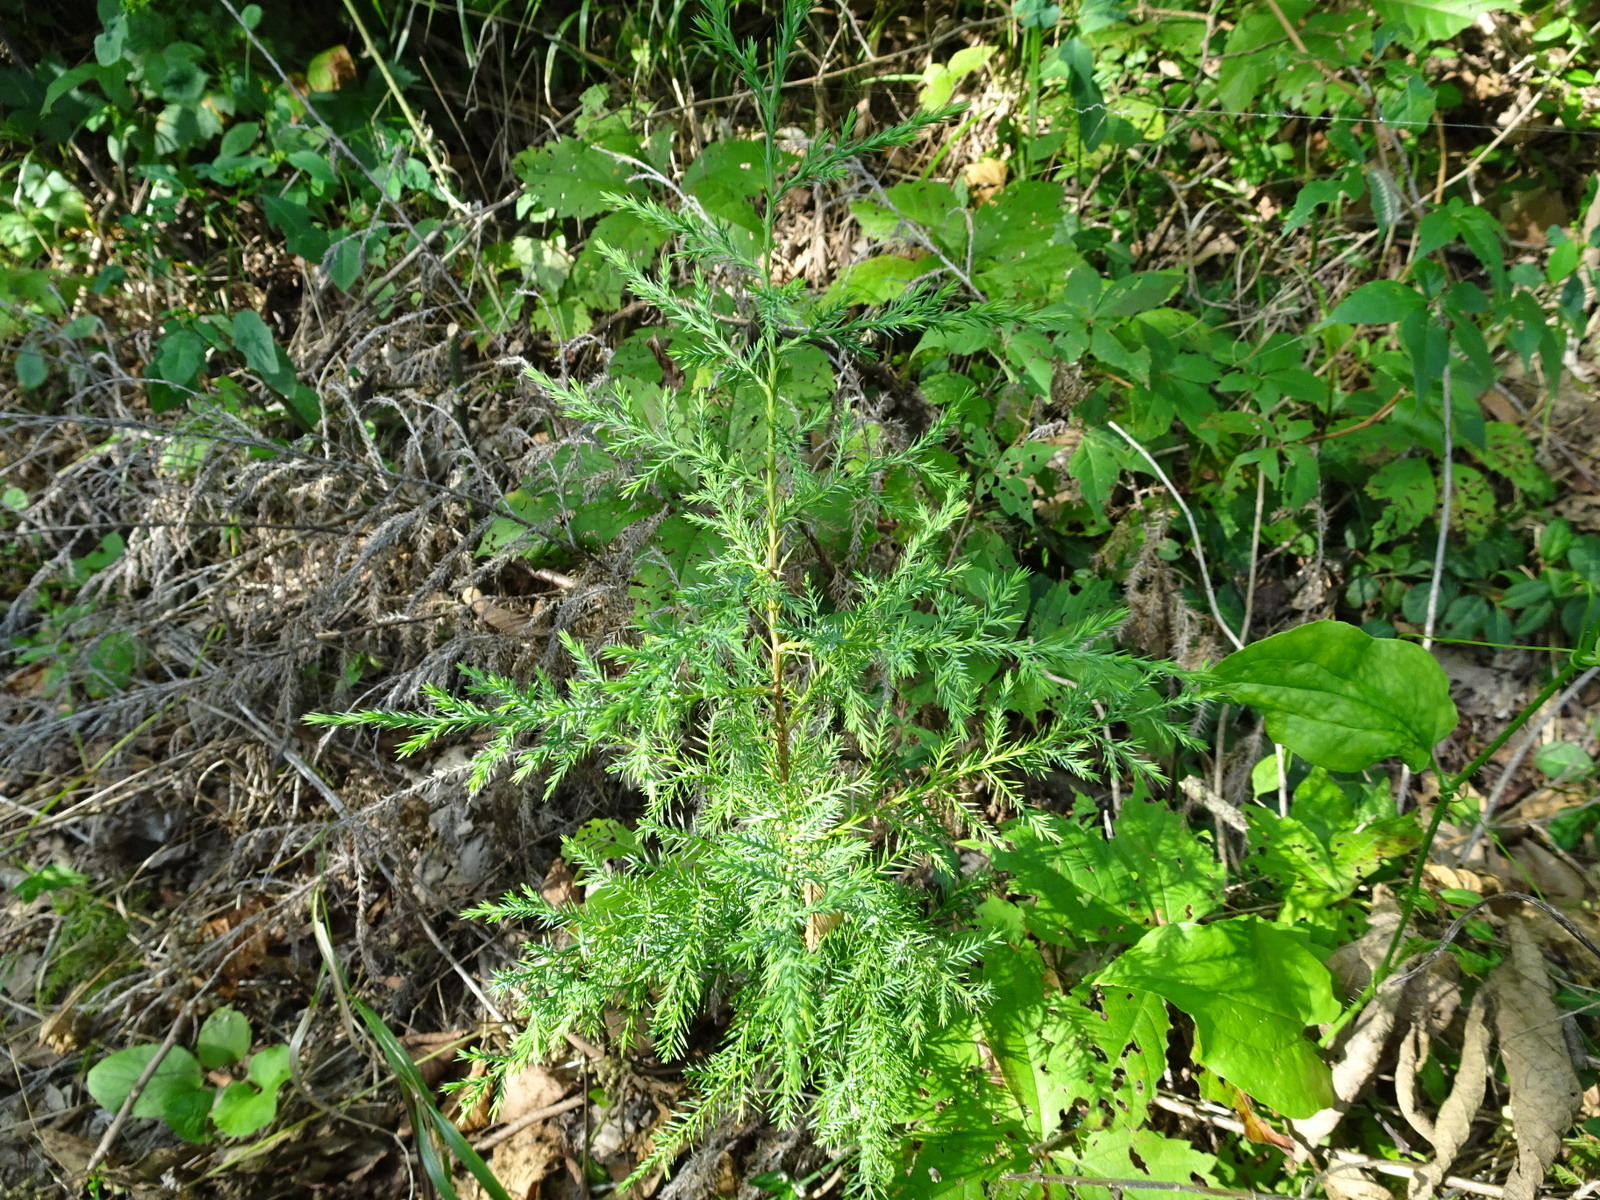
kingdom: Plantae
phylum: Tracheophyta
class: Pinopsida
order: Pinales
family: Cupressaceae
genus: Juniperus
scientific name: Juniperus virginiana
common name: Red juniper
